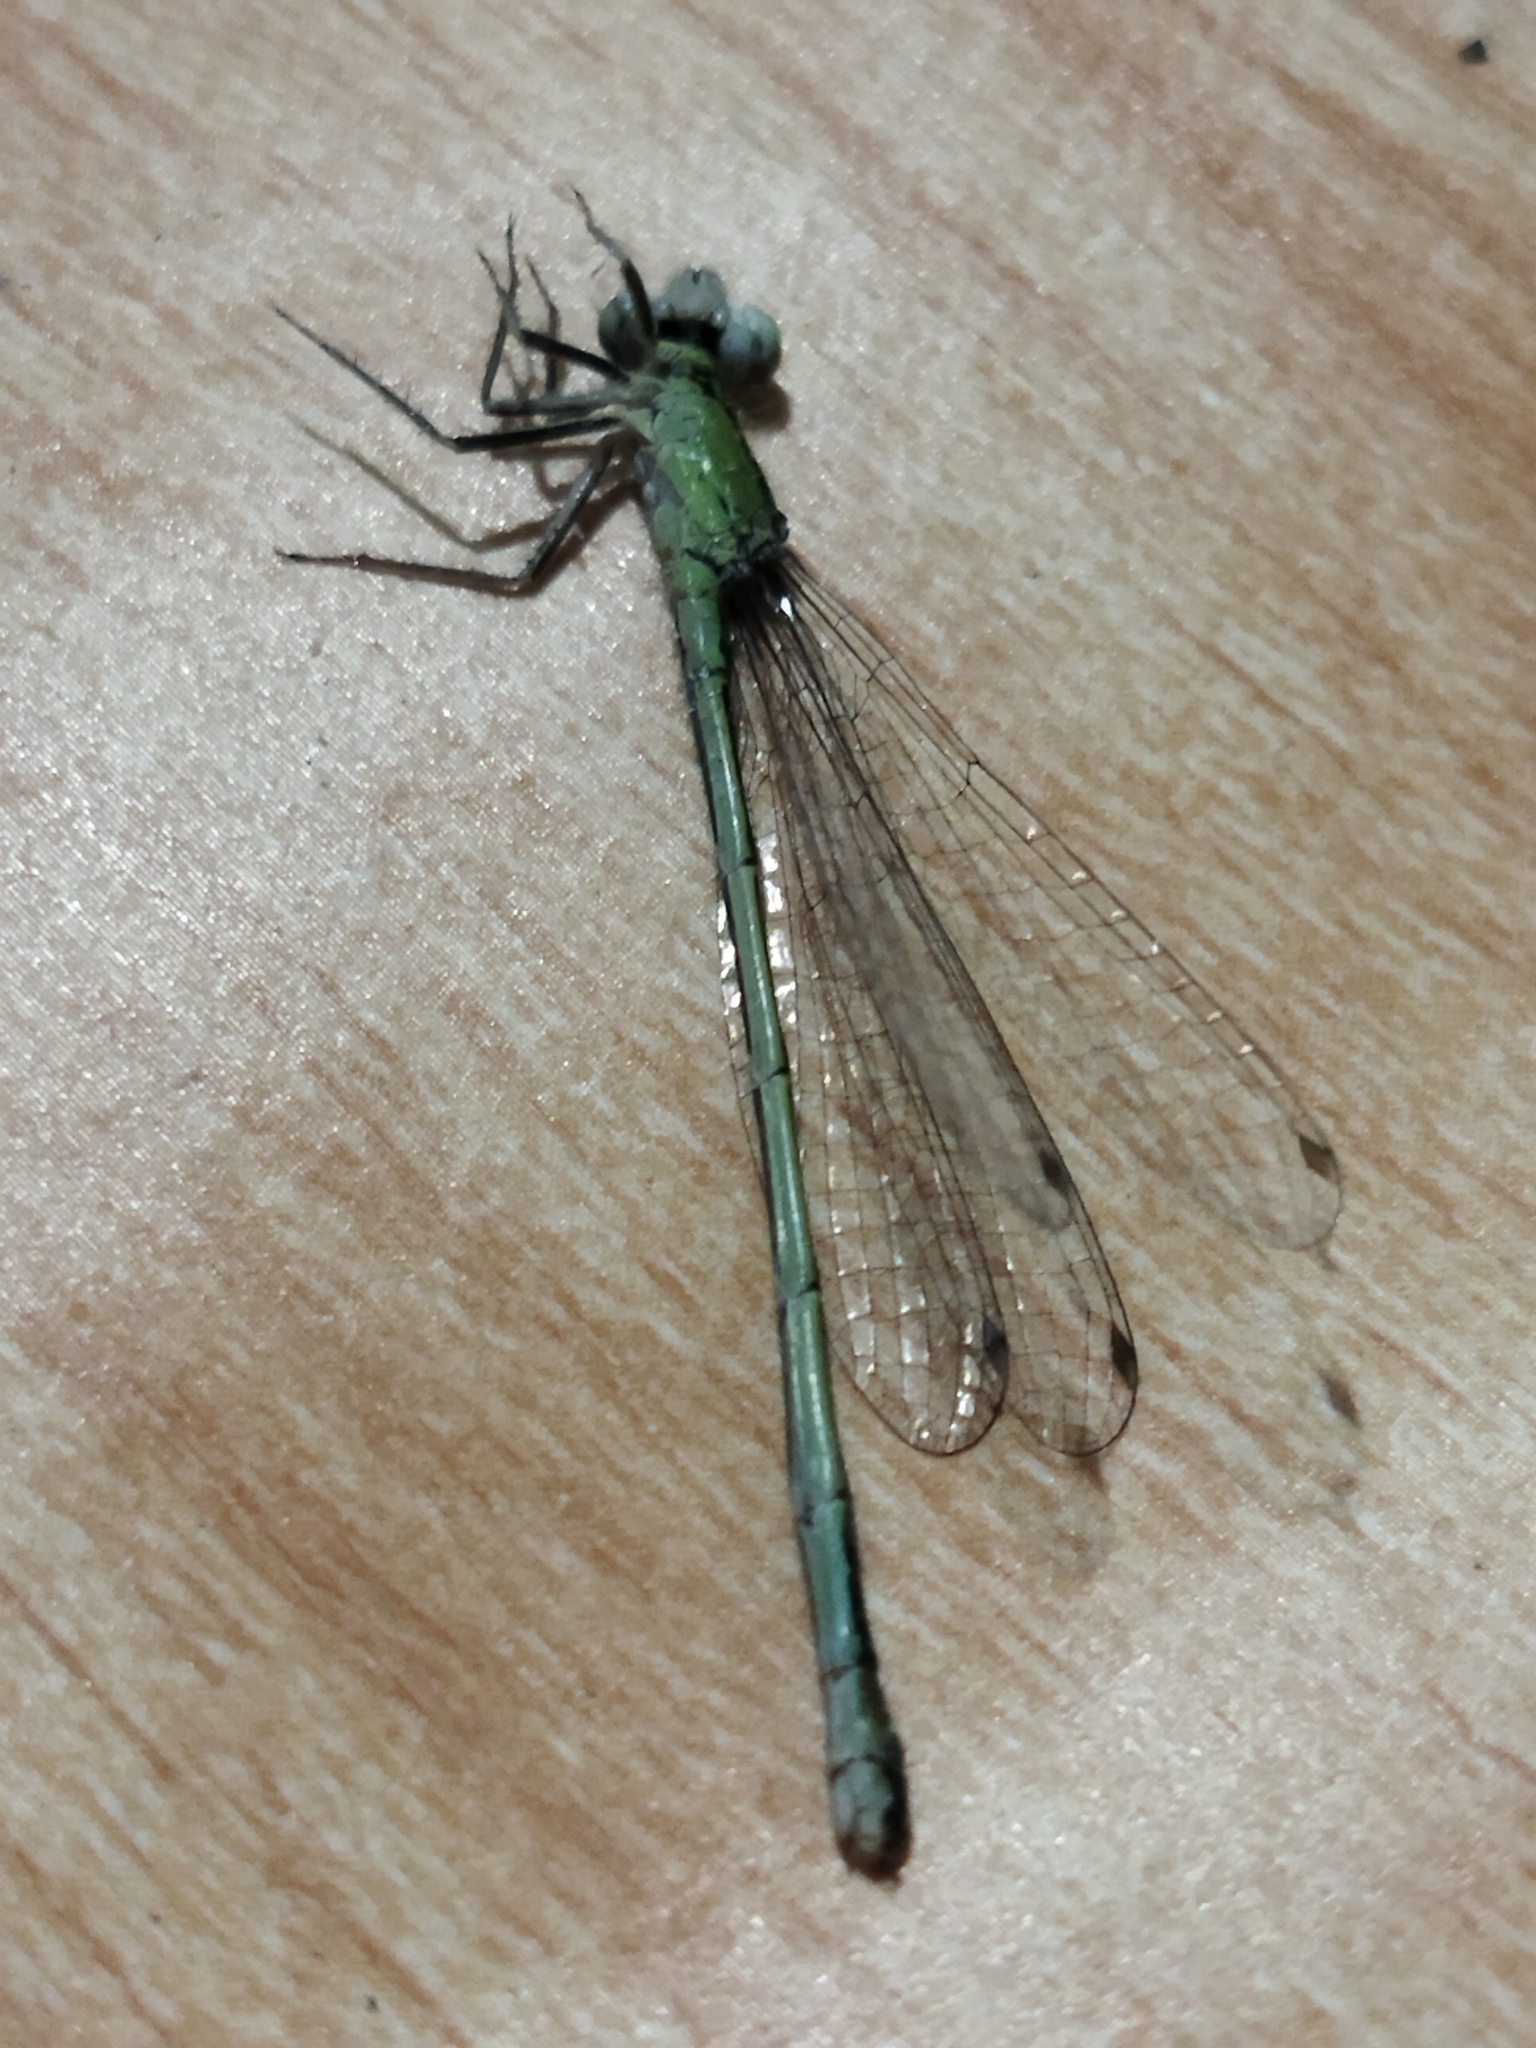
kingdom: Animalia
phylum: Arthropoda
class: Insecta
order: Odonata
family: Coenagrionidae
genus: Ischnura
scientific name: Ischnura elegans
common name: Blue-tailed damselfly
